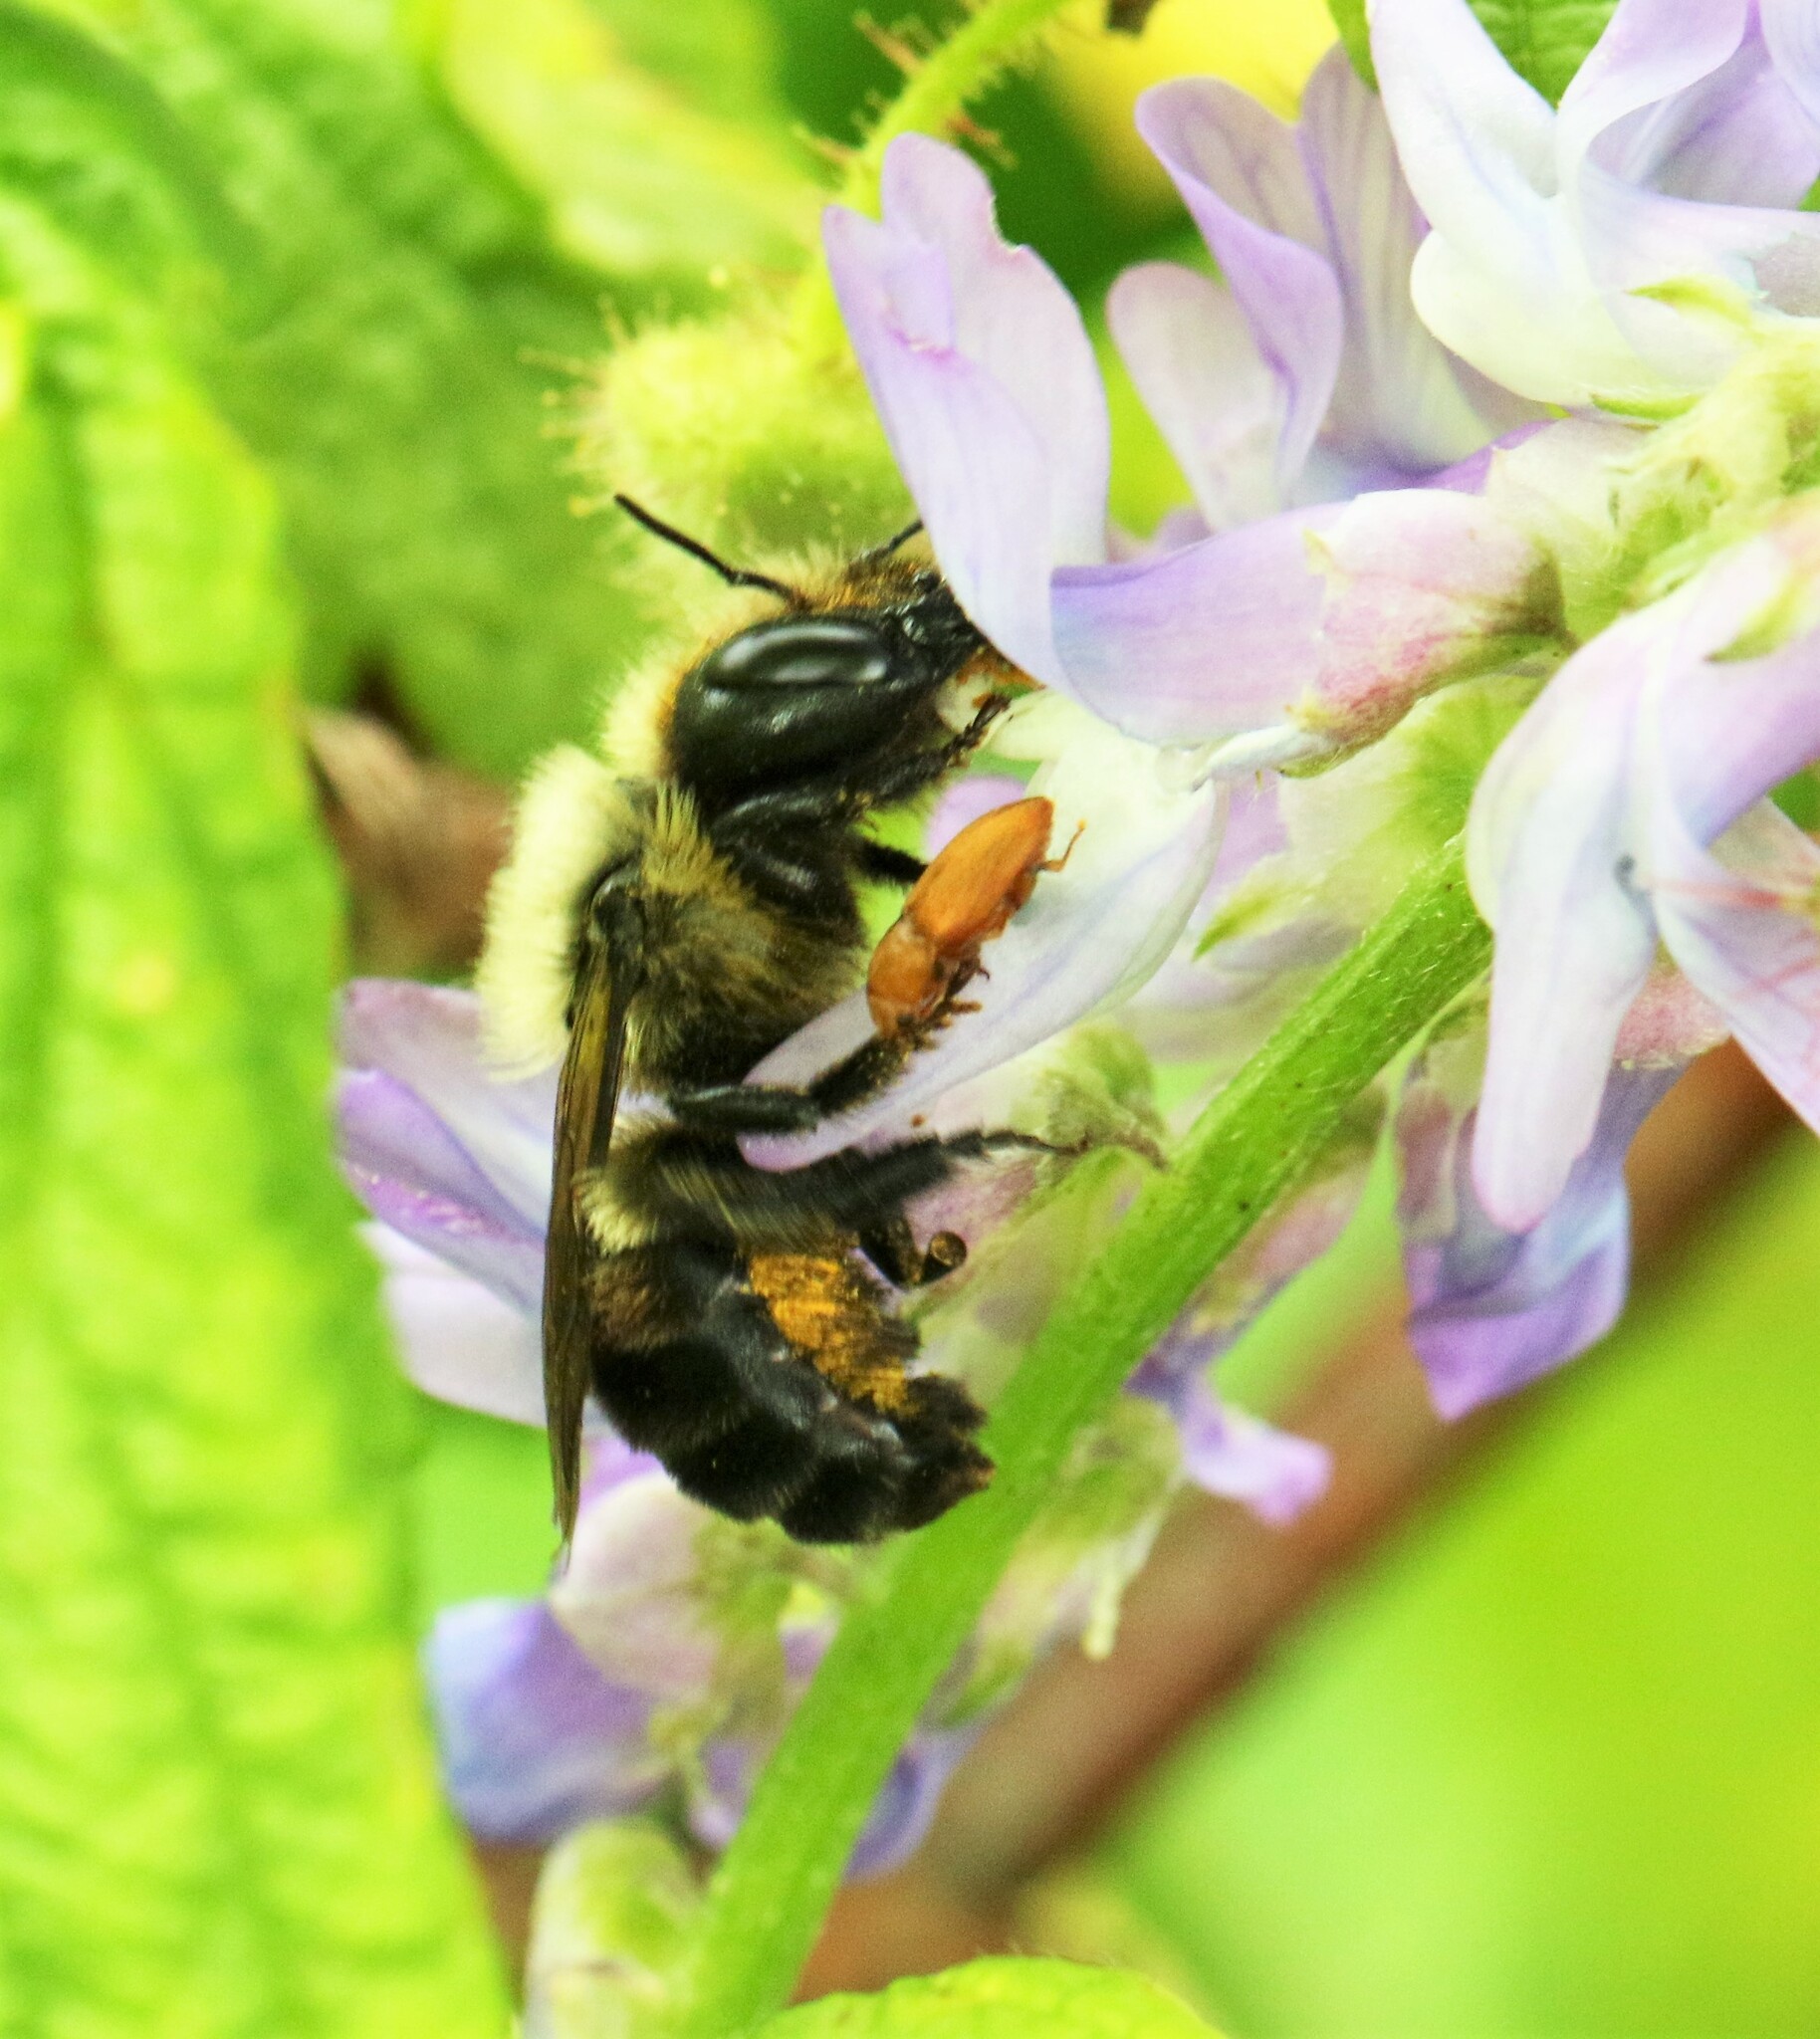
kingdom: Animalia
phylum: Arthropoda
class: Insecta
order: Hymenoptera
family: Megachilidae
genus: Osmia
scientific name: Osmia bucephala
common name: Bufflehead mason bee
